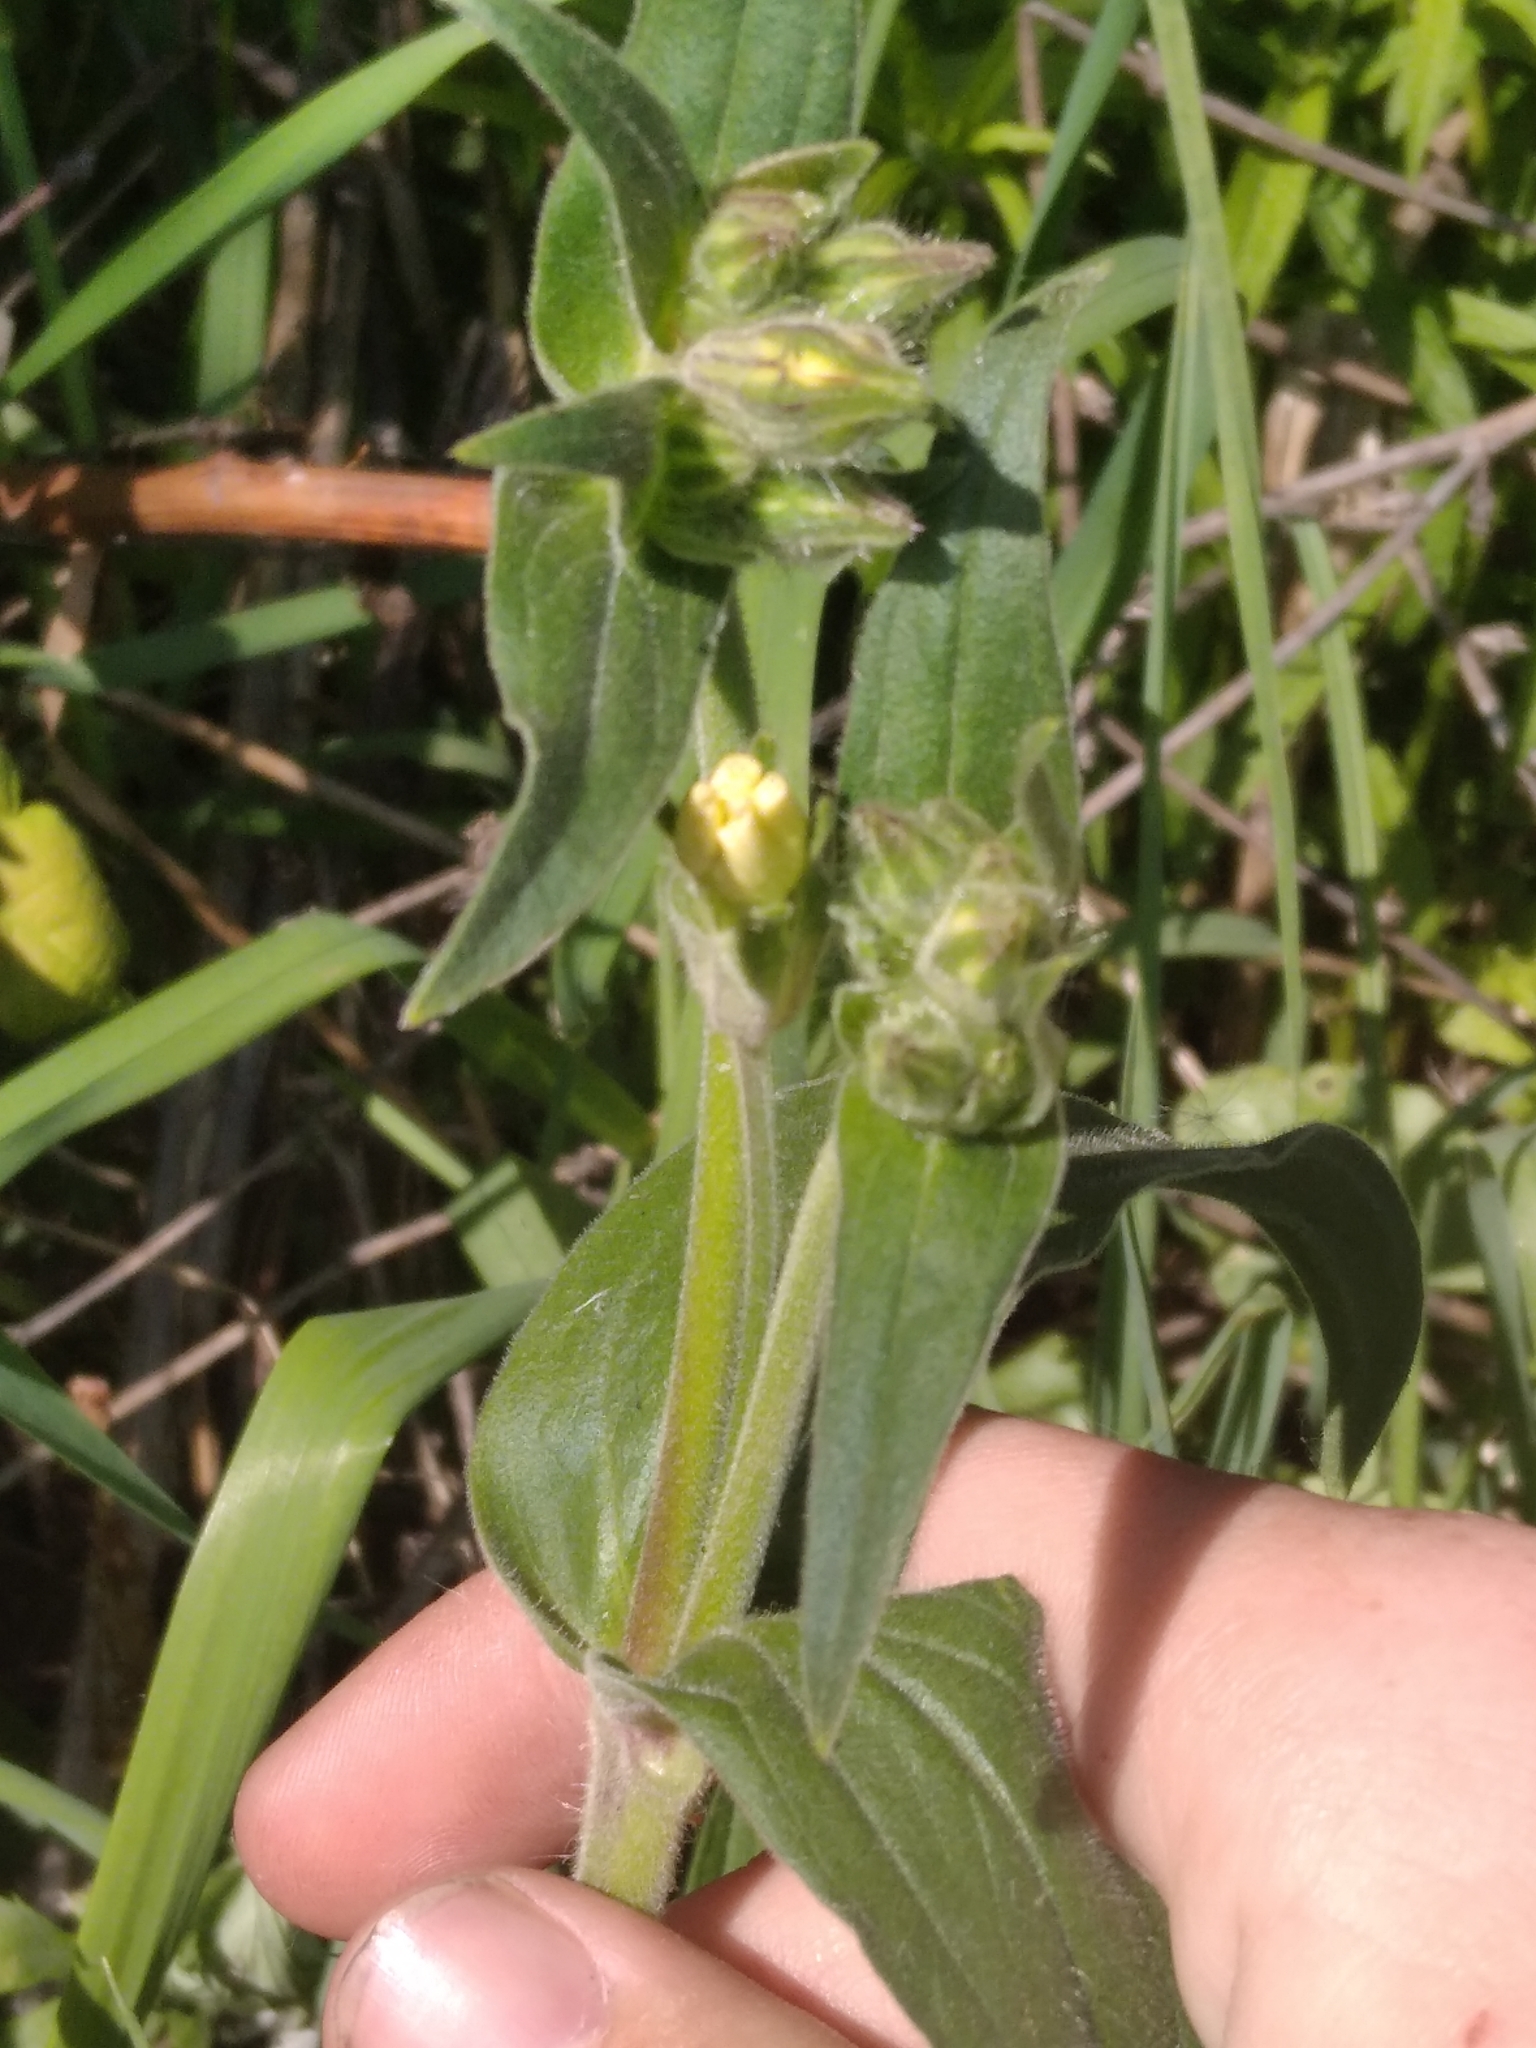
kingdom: Plantae
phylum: Tracheophyta
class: Magnoliopsida
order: Caryophyllales
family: Caryophyllaceae
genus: Silene
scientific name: Silene latifolia
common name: White campion
